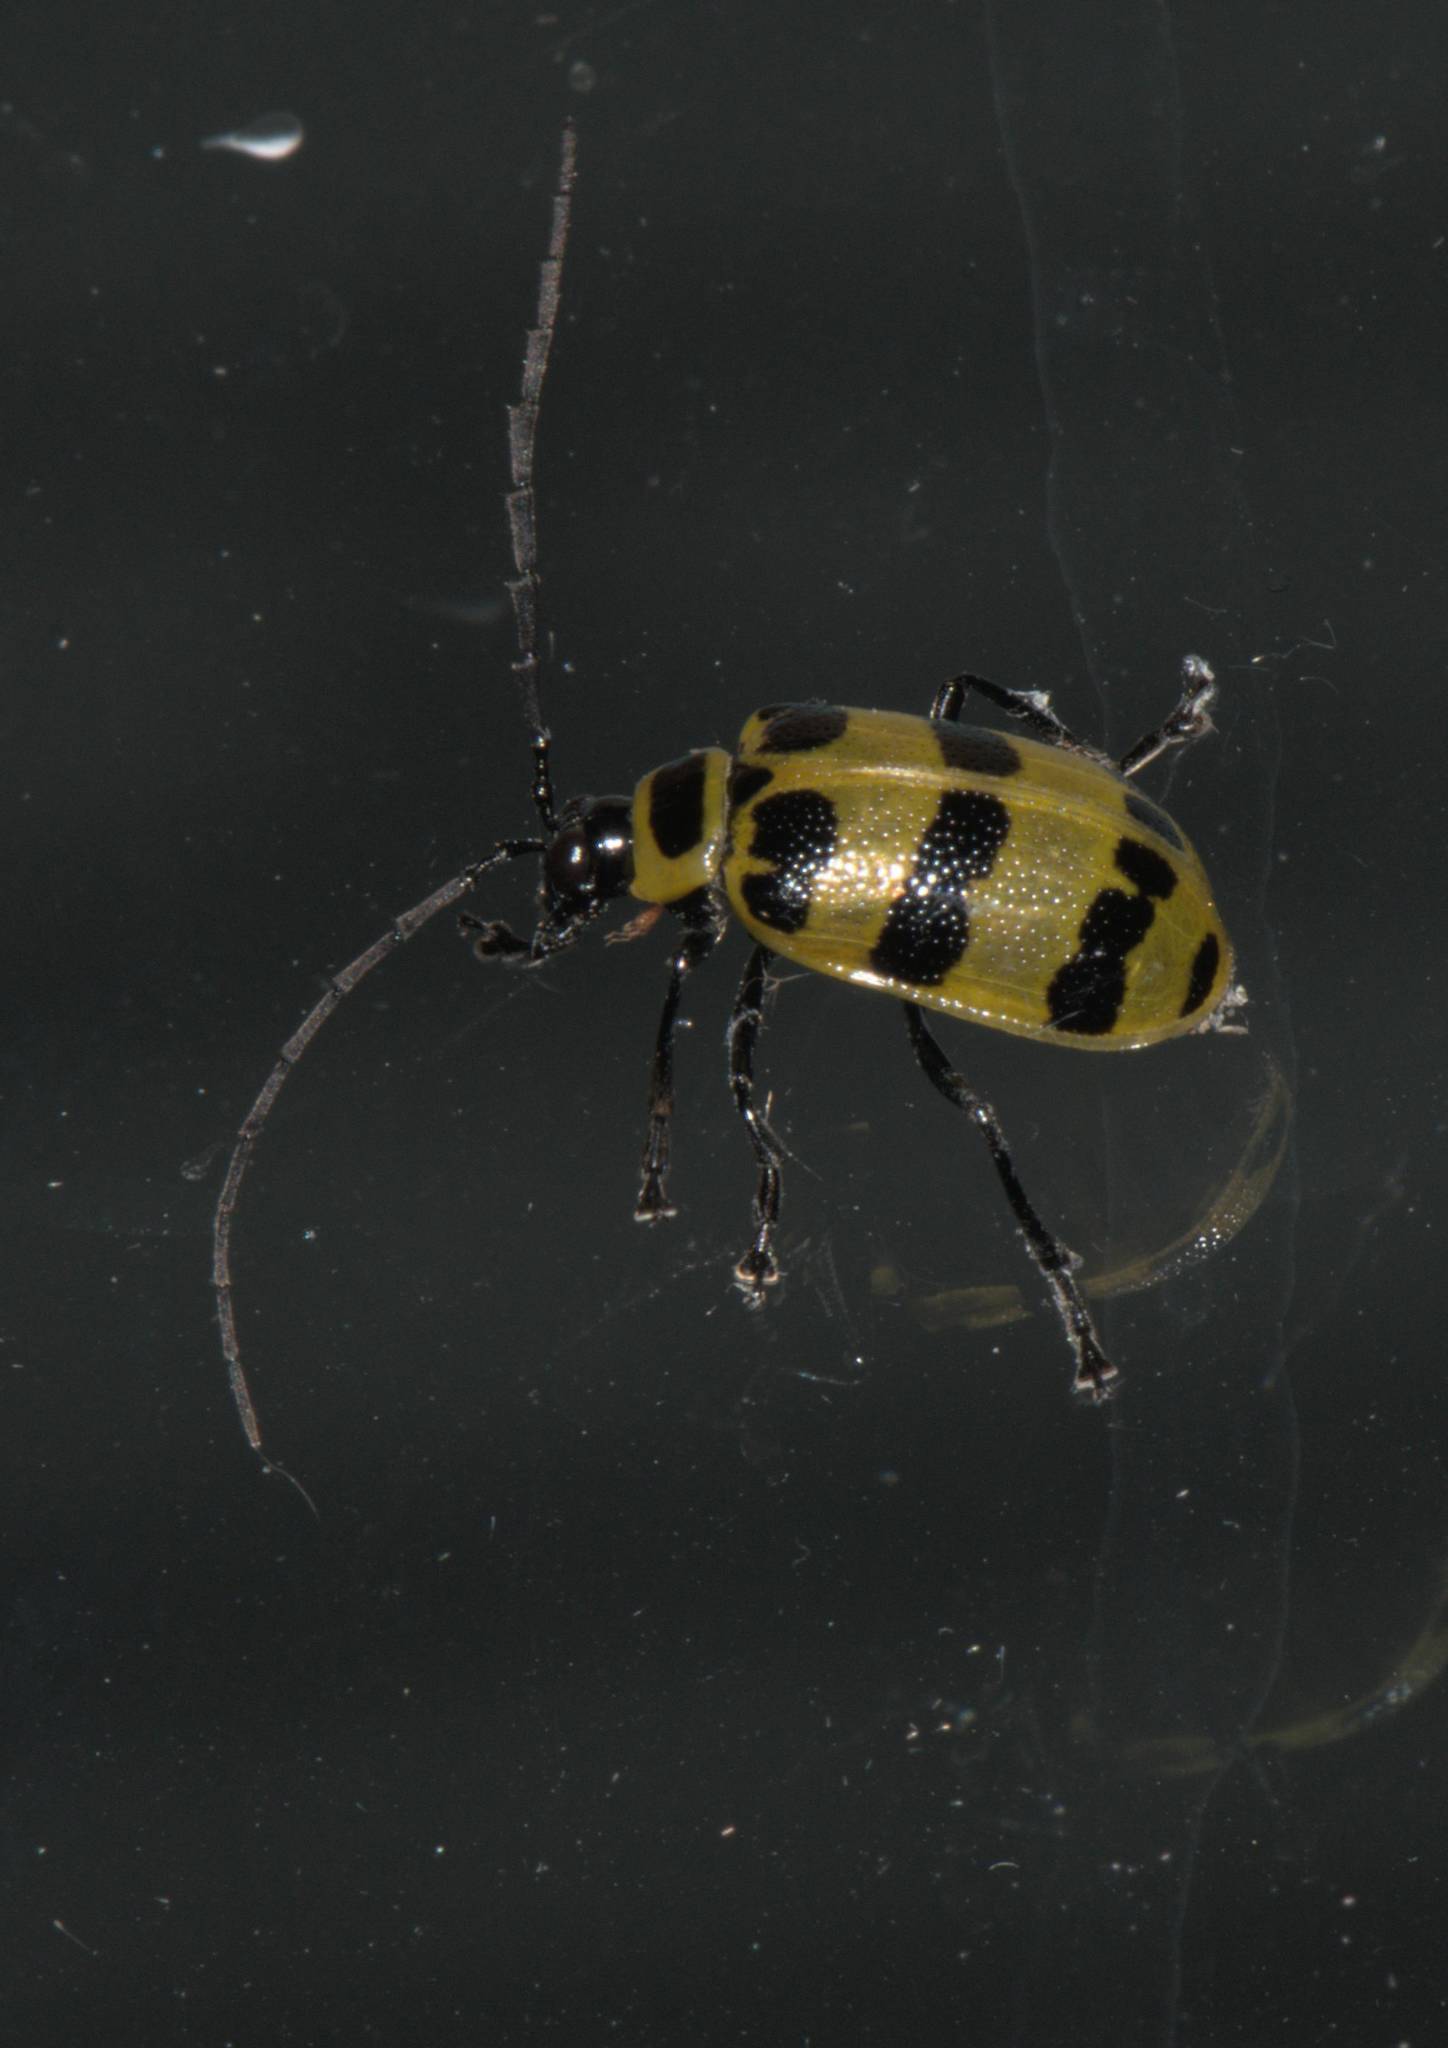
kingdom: Animalia
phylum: Arthropoda
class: Insecta
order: Coleoptera
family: Chrysomelidae
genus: Meristata
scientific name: Meristata quadrifasciata
